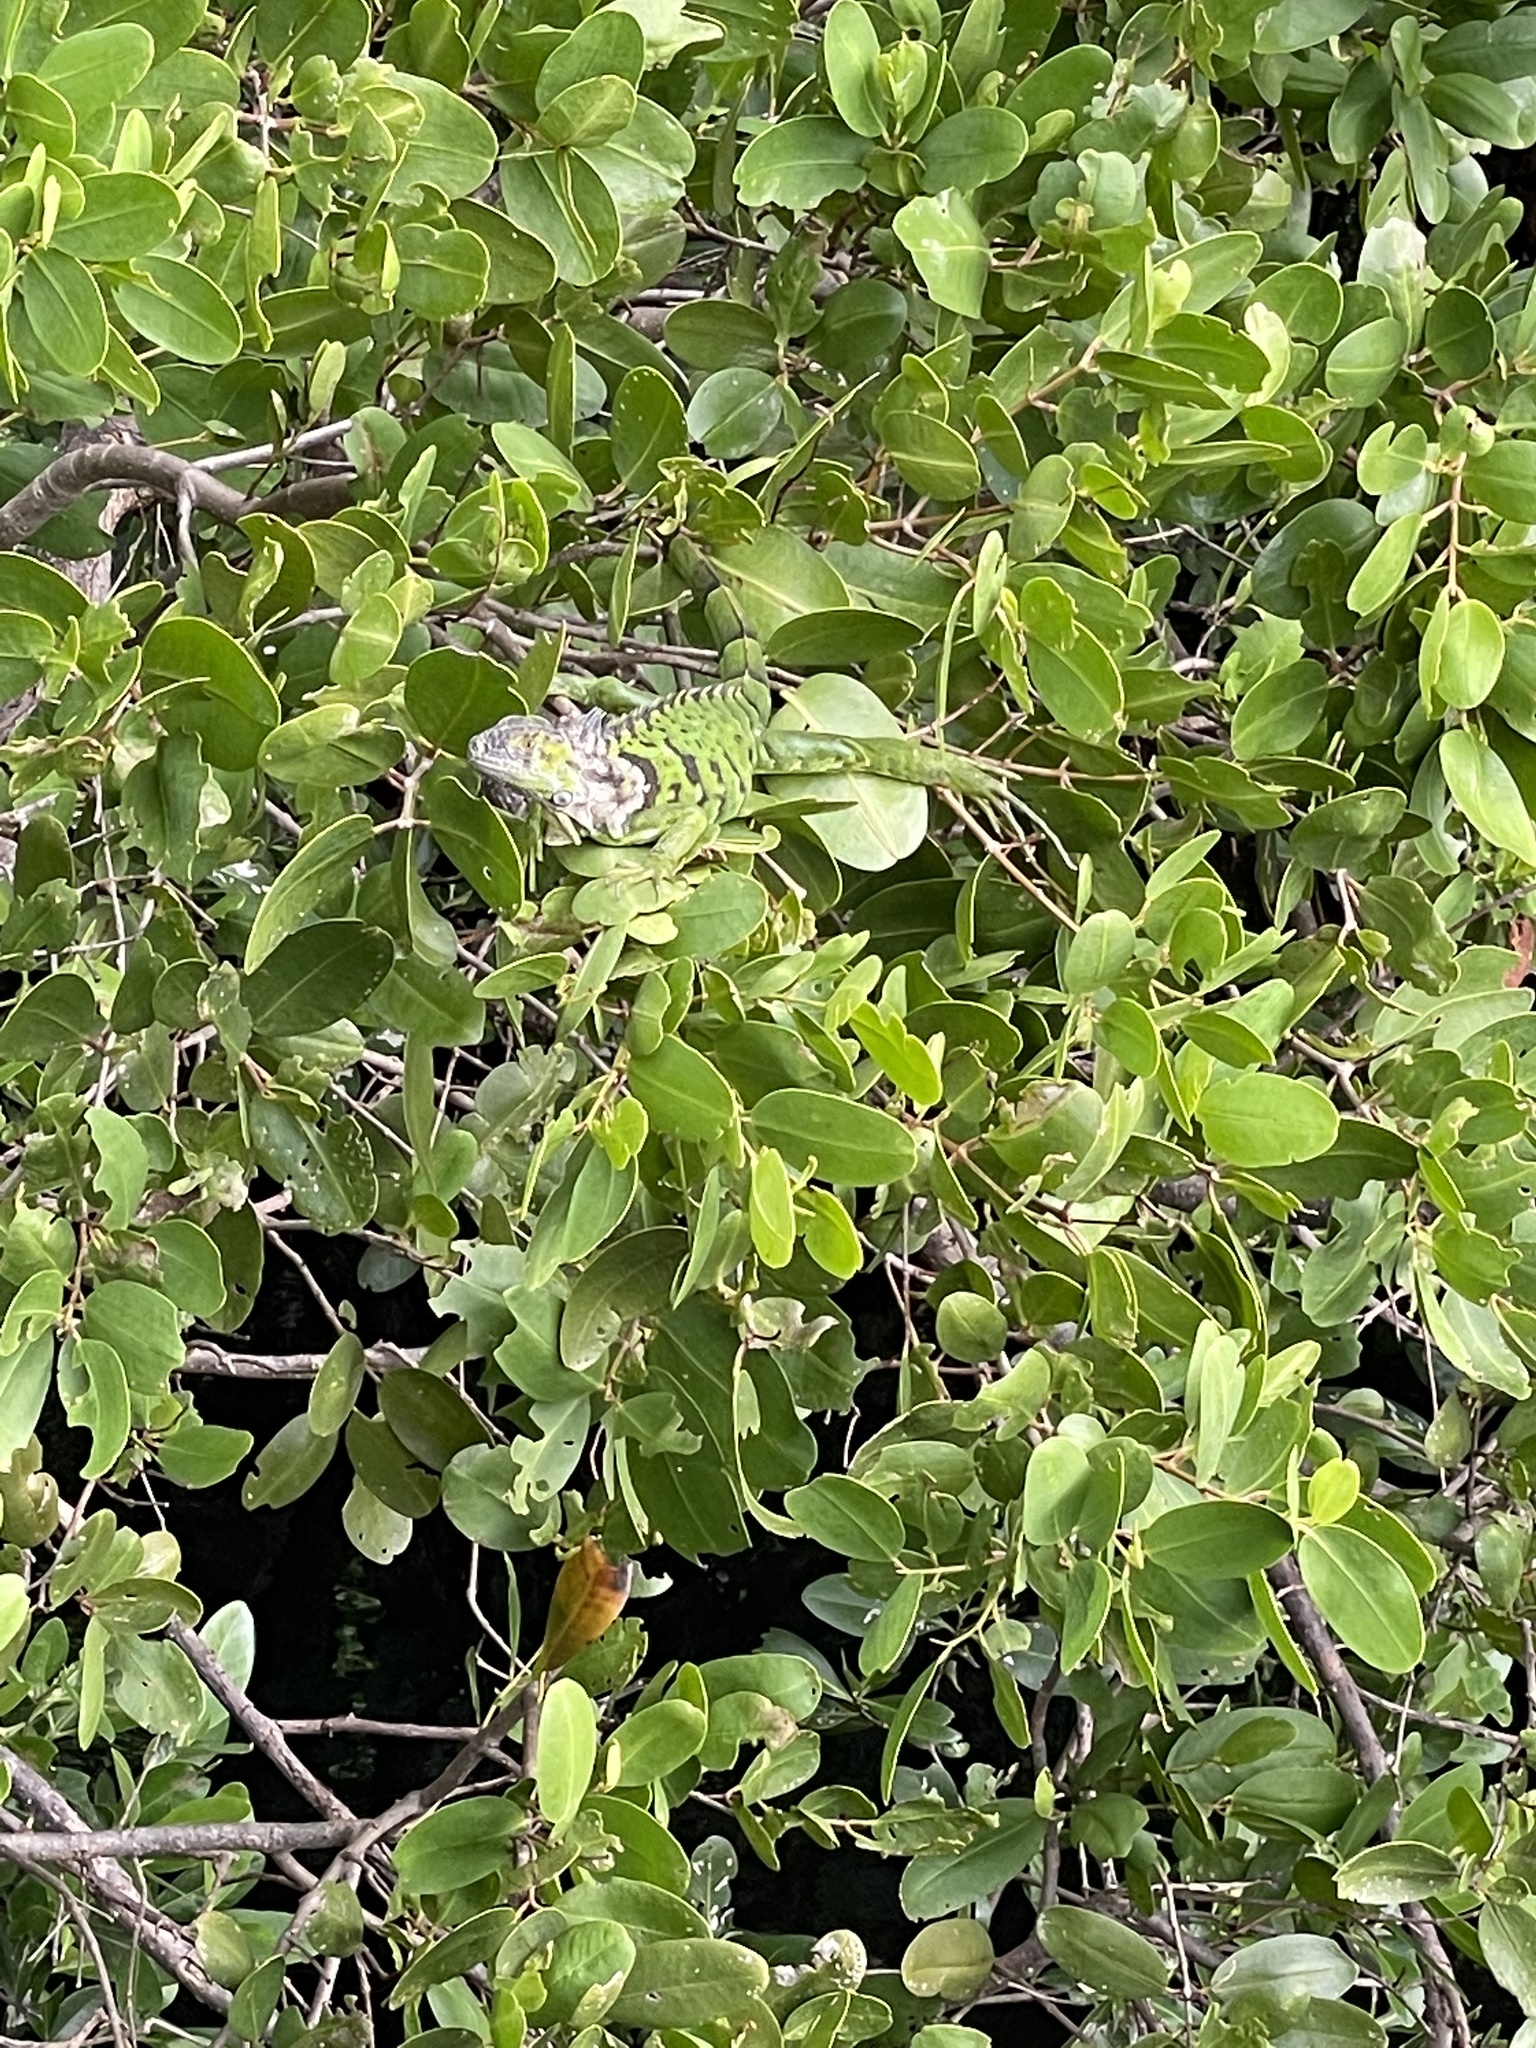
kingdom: Animalia
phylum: Chordata
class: Squamata
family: Iguanidae
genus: Iguana
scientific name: Iguana iguana
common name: Green iguana
